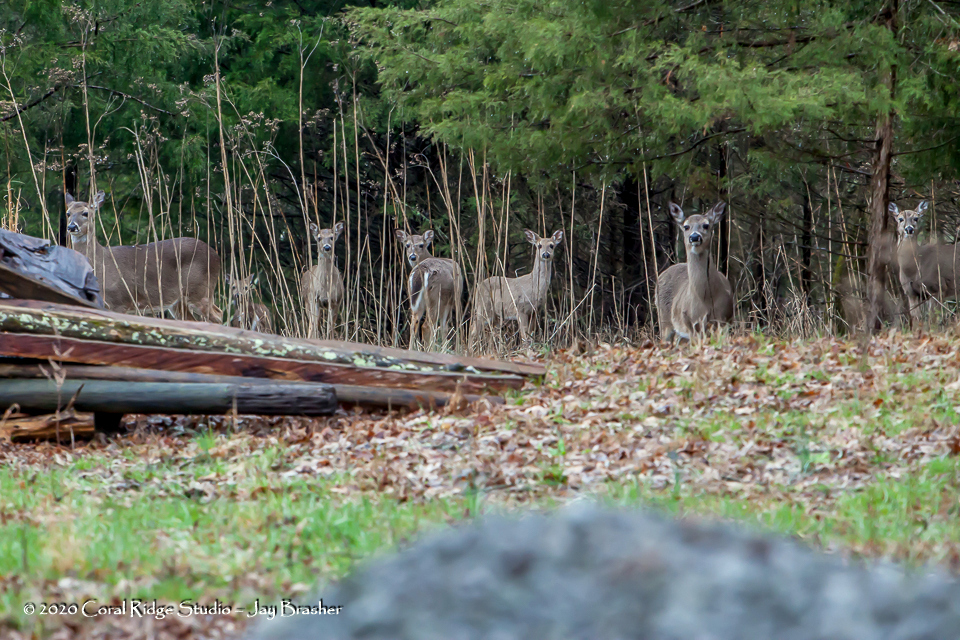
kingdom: Animalia
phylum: Chordata
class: Mammalia
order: Artiodactyla
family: Cervidae
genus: Odocoileus
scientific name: Odocoileus virginianus
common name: White-tailed deer
